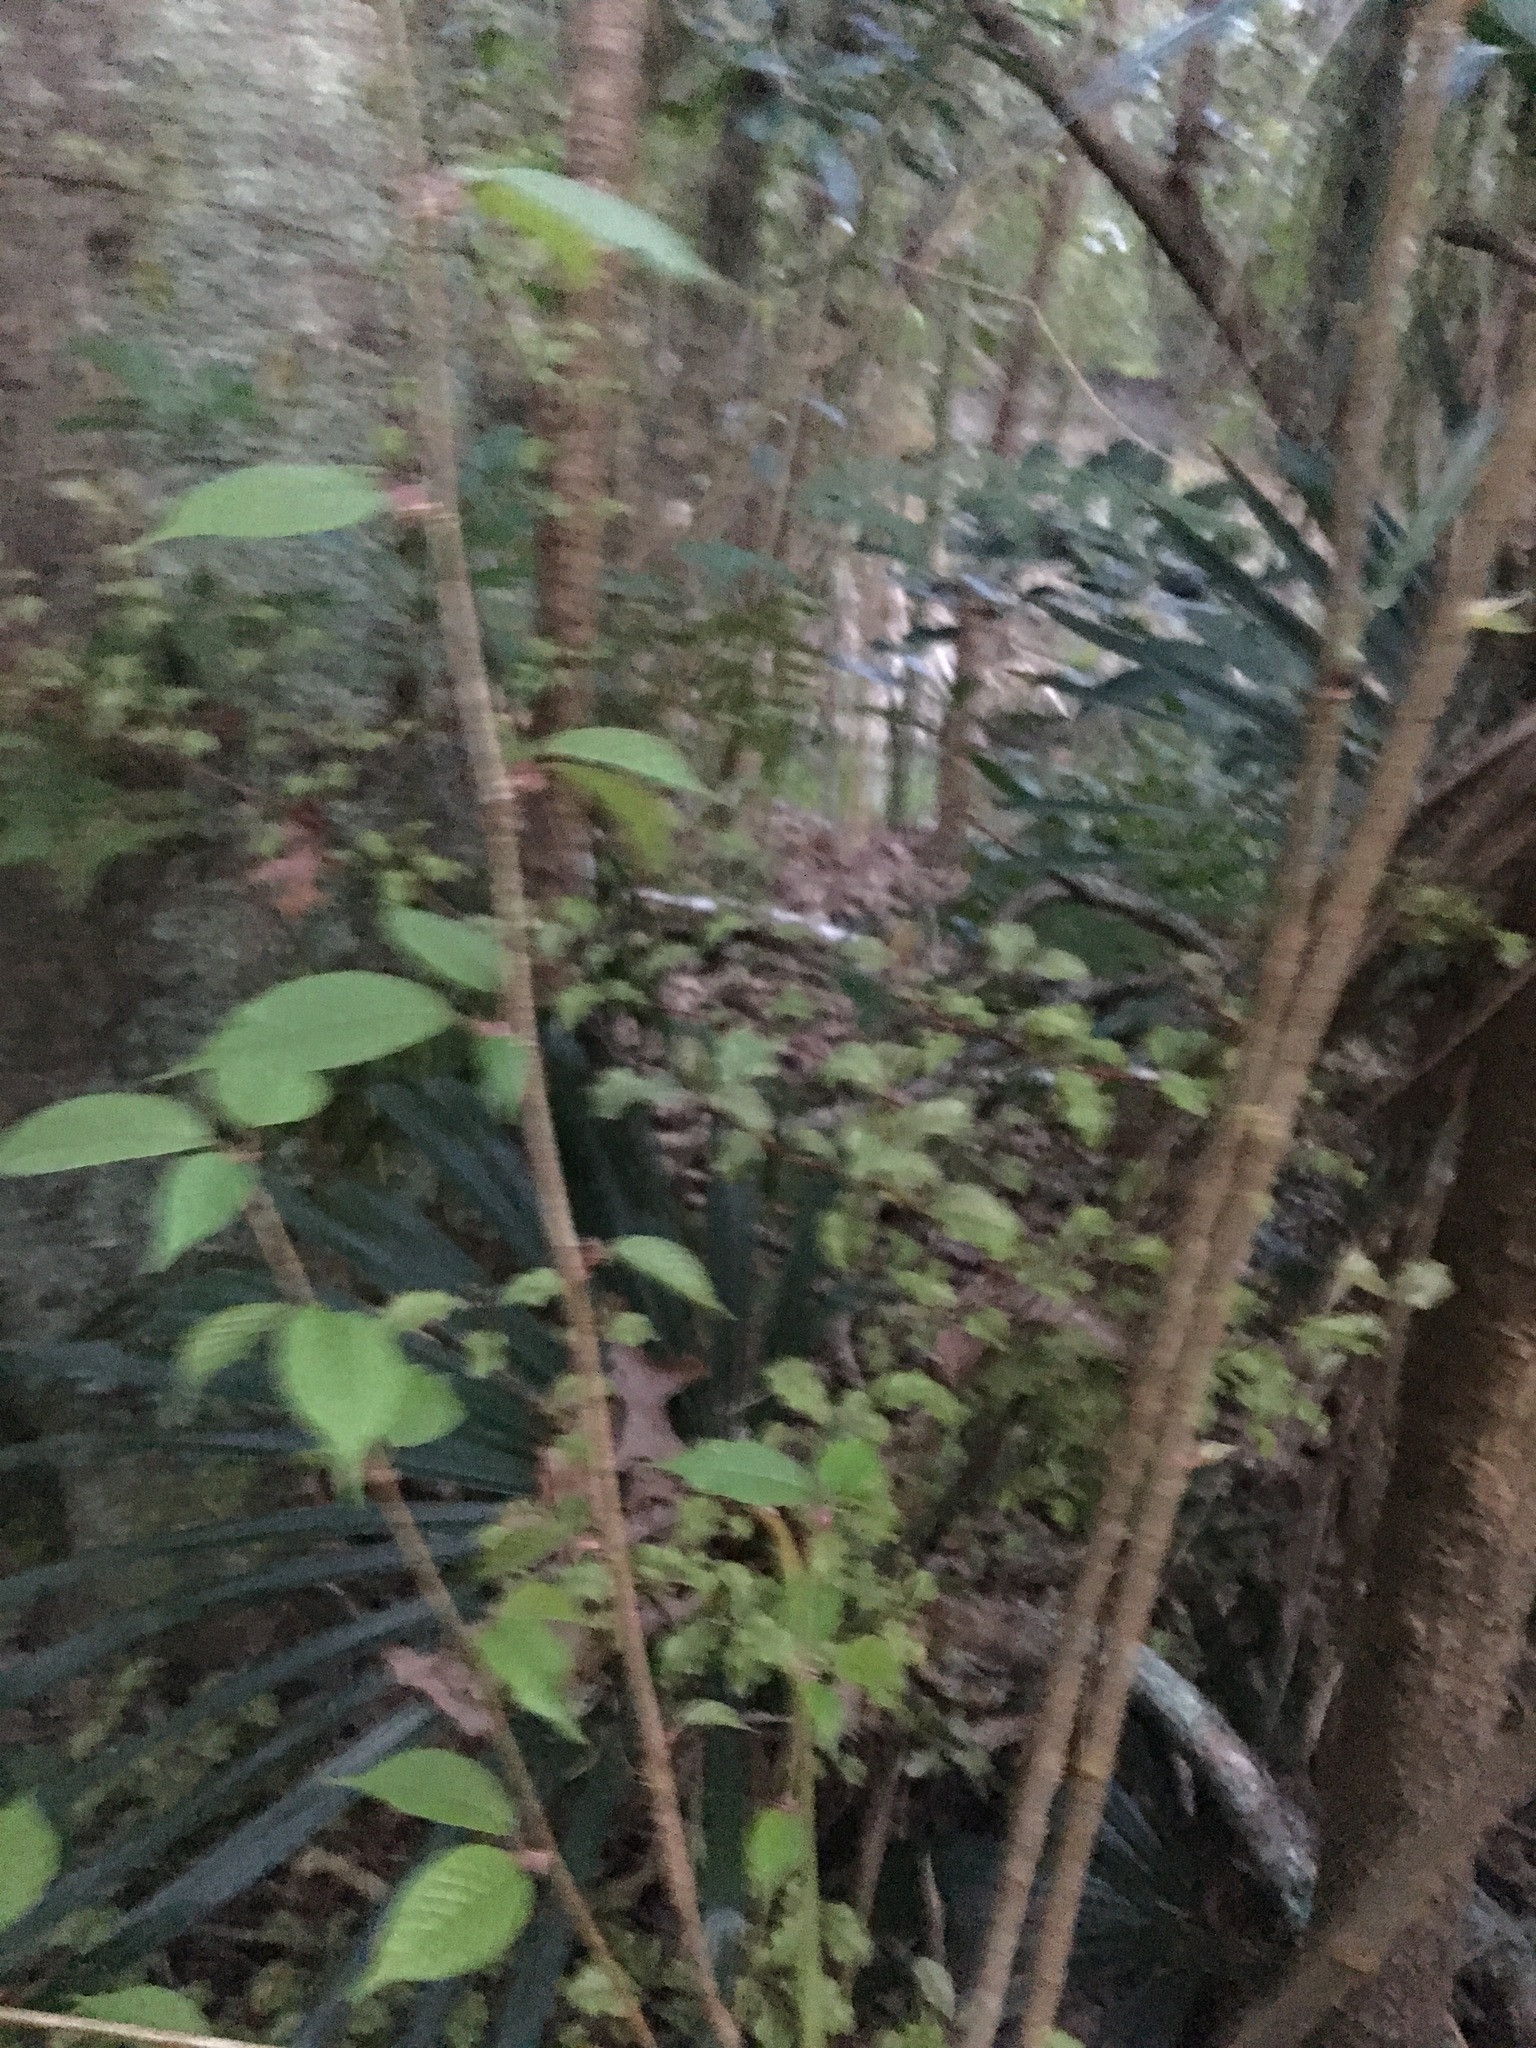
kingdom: Plantae
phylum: Tracheophyta
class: Magnoliopsida
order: Rosales
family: Rosaceae
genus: Prunus
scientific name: Prunus serrulata
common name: Japanese cherry
